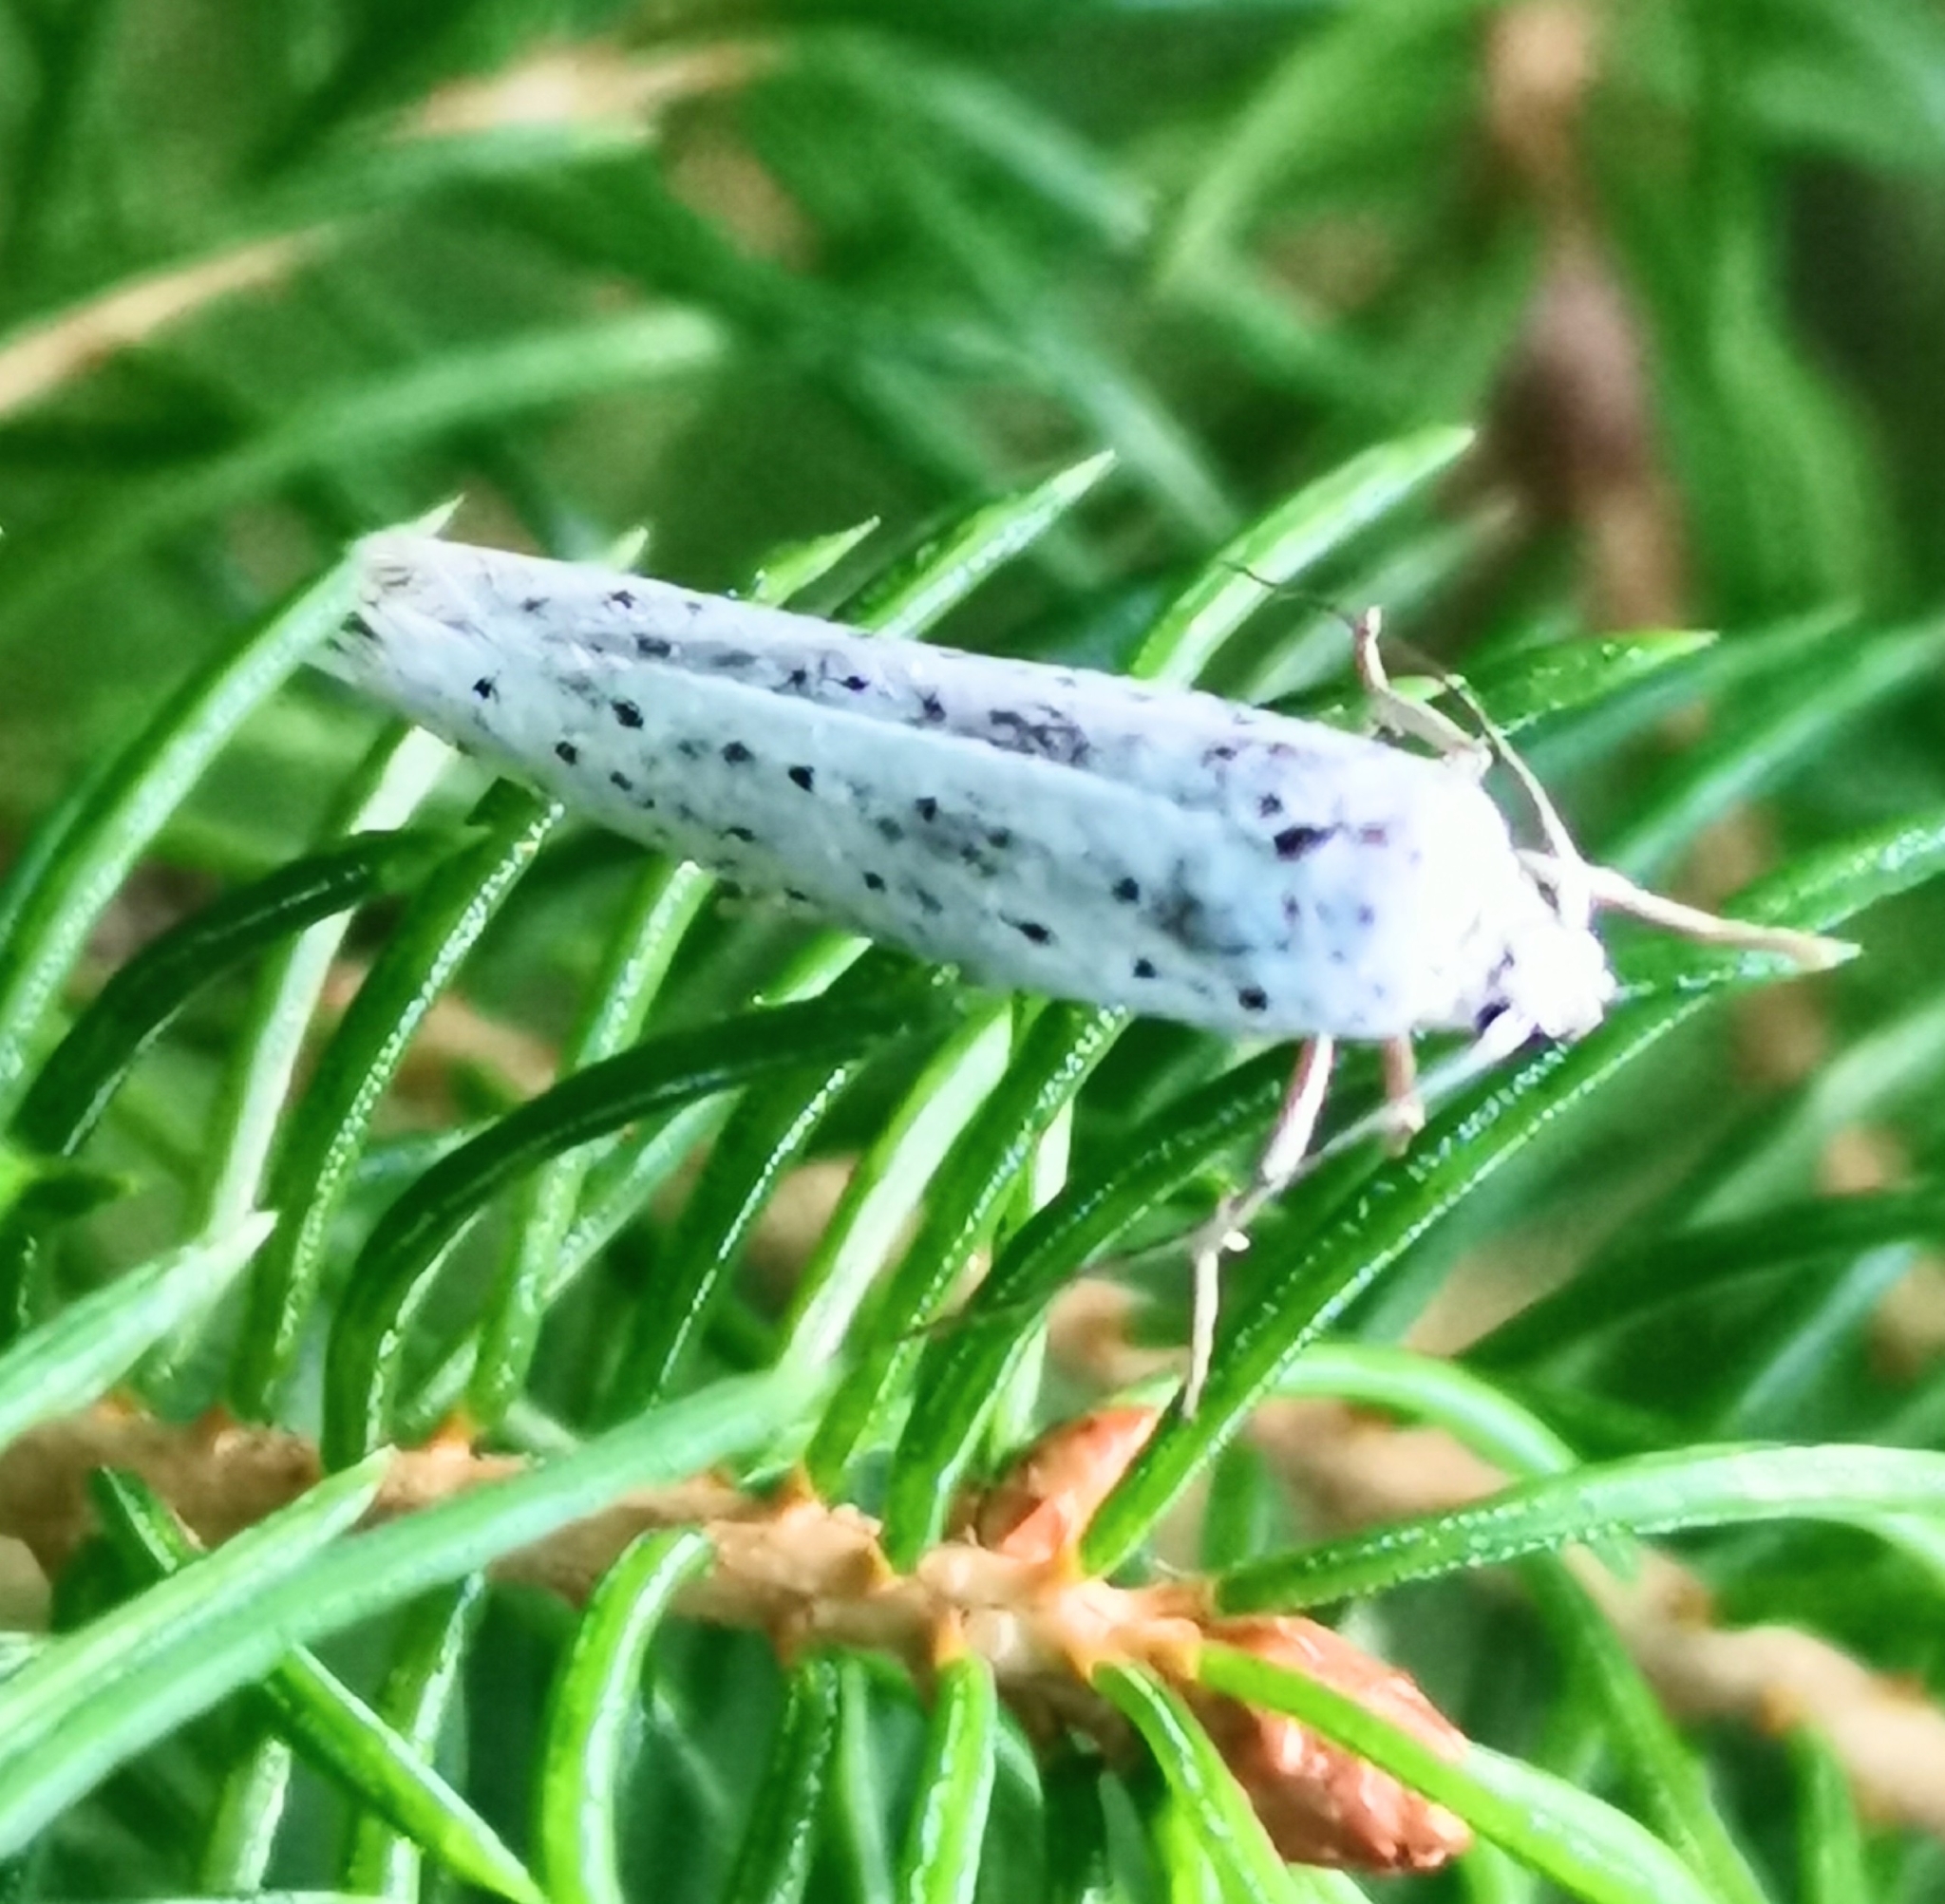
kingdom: Animalia
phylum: Arthropoda
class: Insecta
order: Lepidoptera
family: Yponomeutidae
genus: Yponomeuta
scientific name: Yponomeuta evonymella
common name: Bird-cherry ermine
